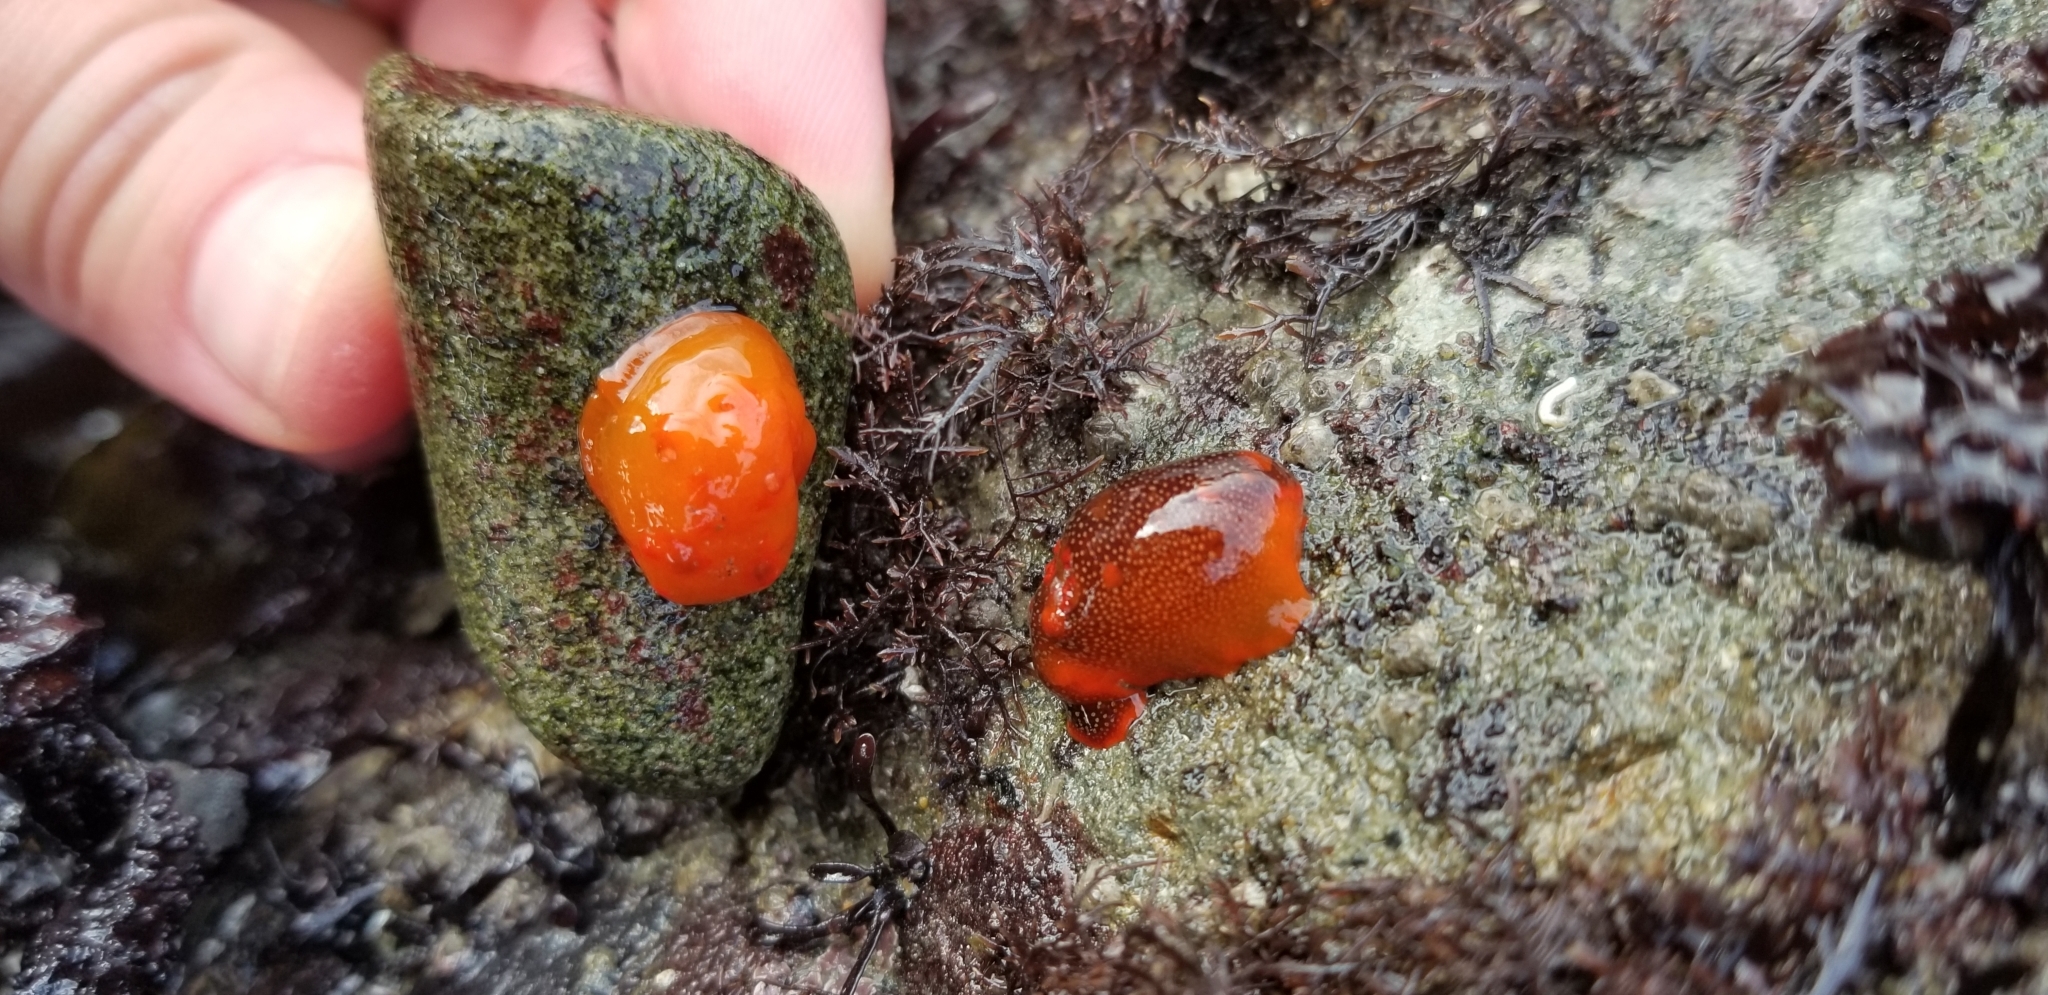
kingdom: Animalia
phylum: Mollusca
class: Gastropoda
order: Nudibranchia
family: Polyceridae
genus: Triopha
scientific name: Triopha maculata
